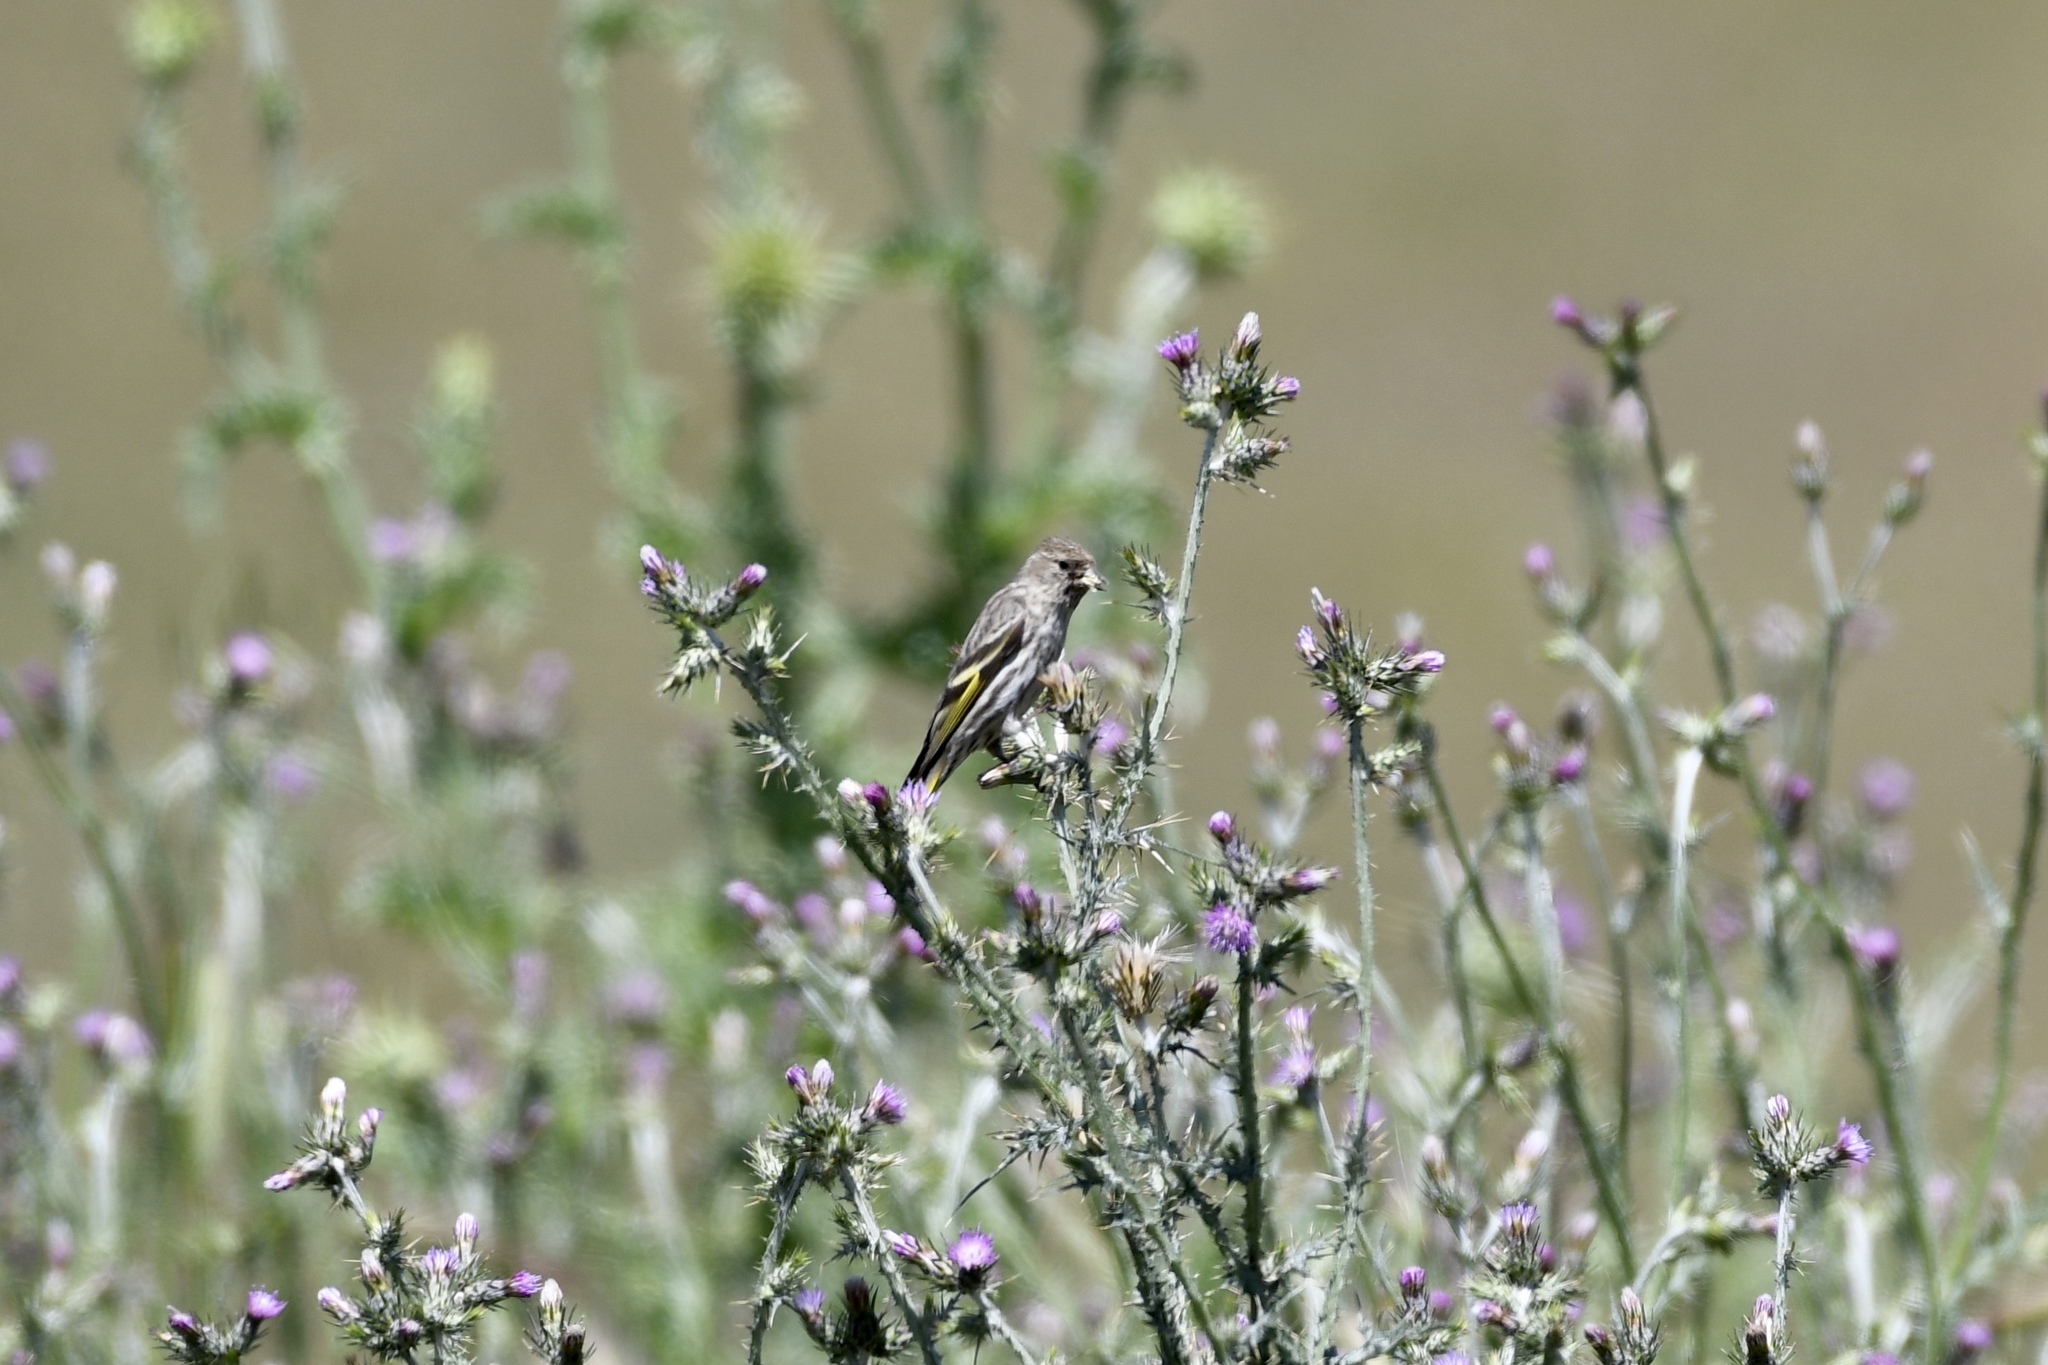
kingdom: Animalia
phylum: Chordata
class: Aves
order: Passeriformes
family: Fringillidae
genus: Spinus
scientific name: Spinus pinus
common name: Pine siskin
